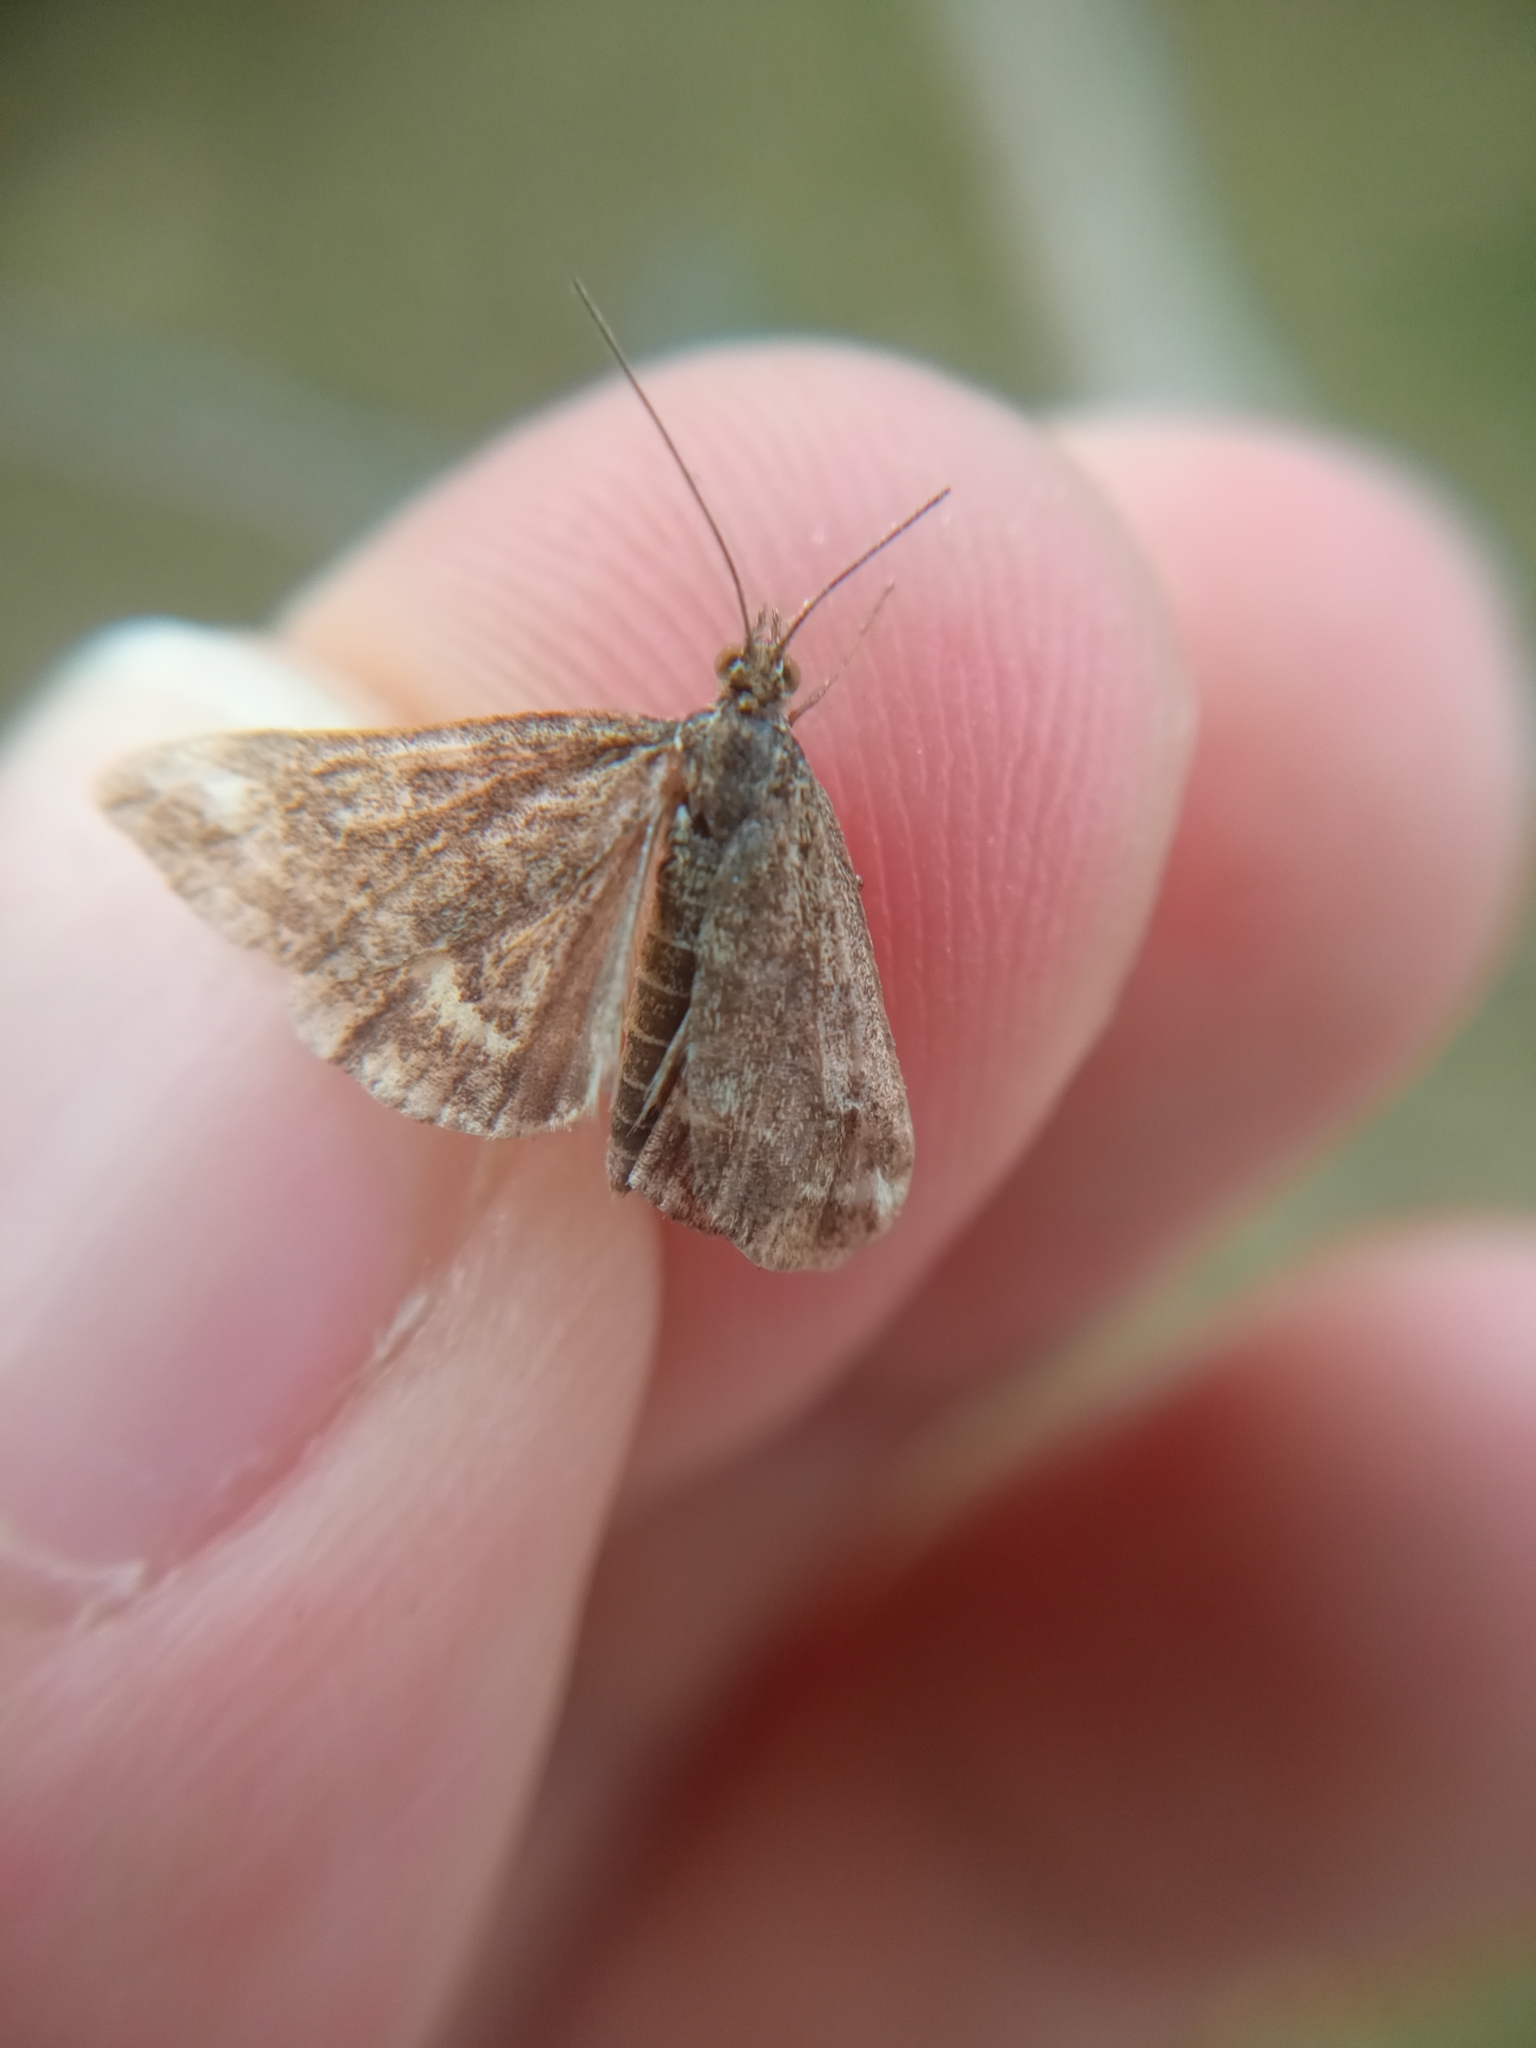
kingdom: Animalia
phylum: Arthropoda
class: Insecta
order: Lepidoptera
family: Crambidae
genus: Pyrausta
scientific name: Pyrausta despicata
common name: Straw-barred pearl
